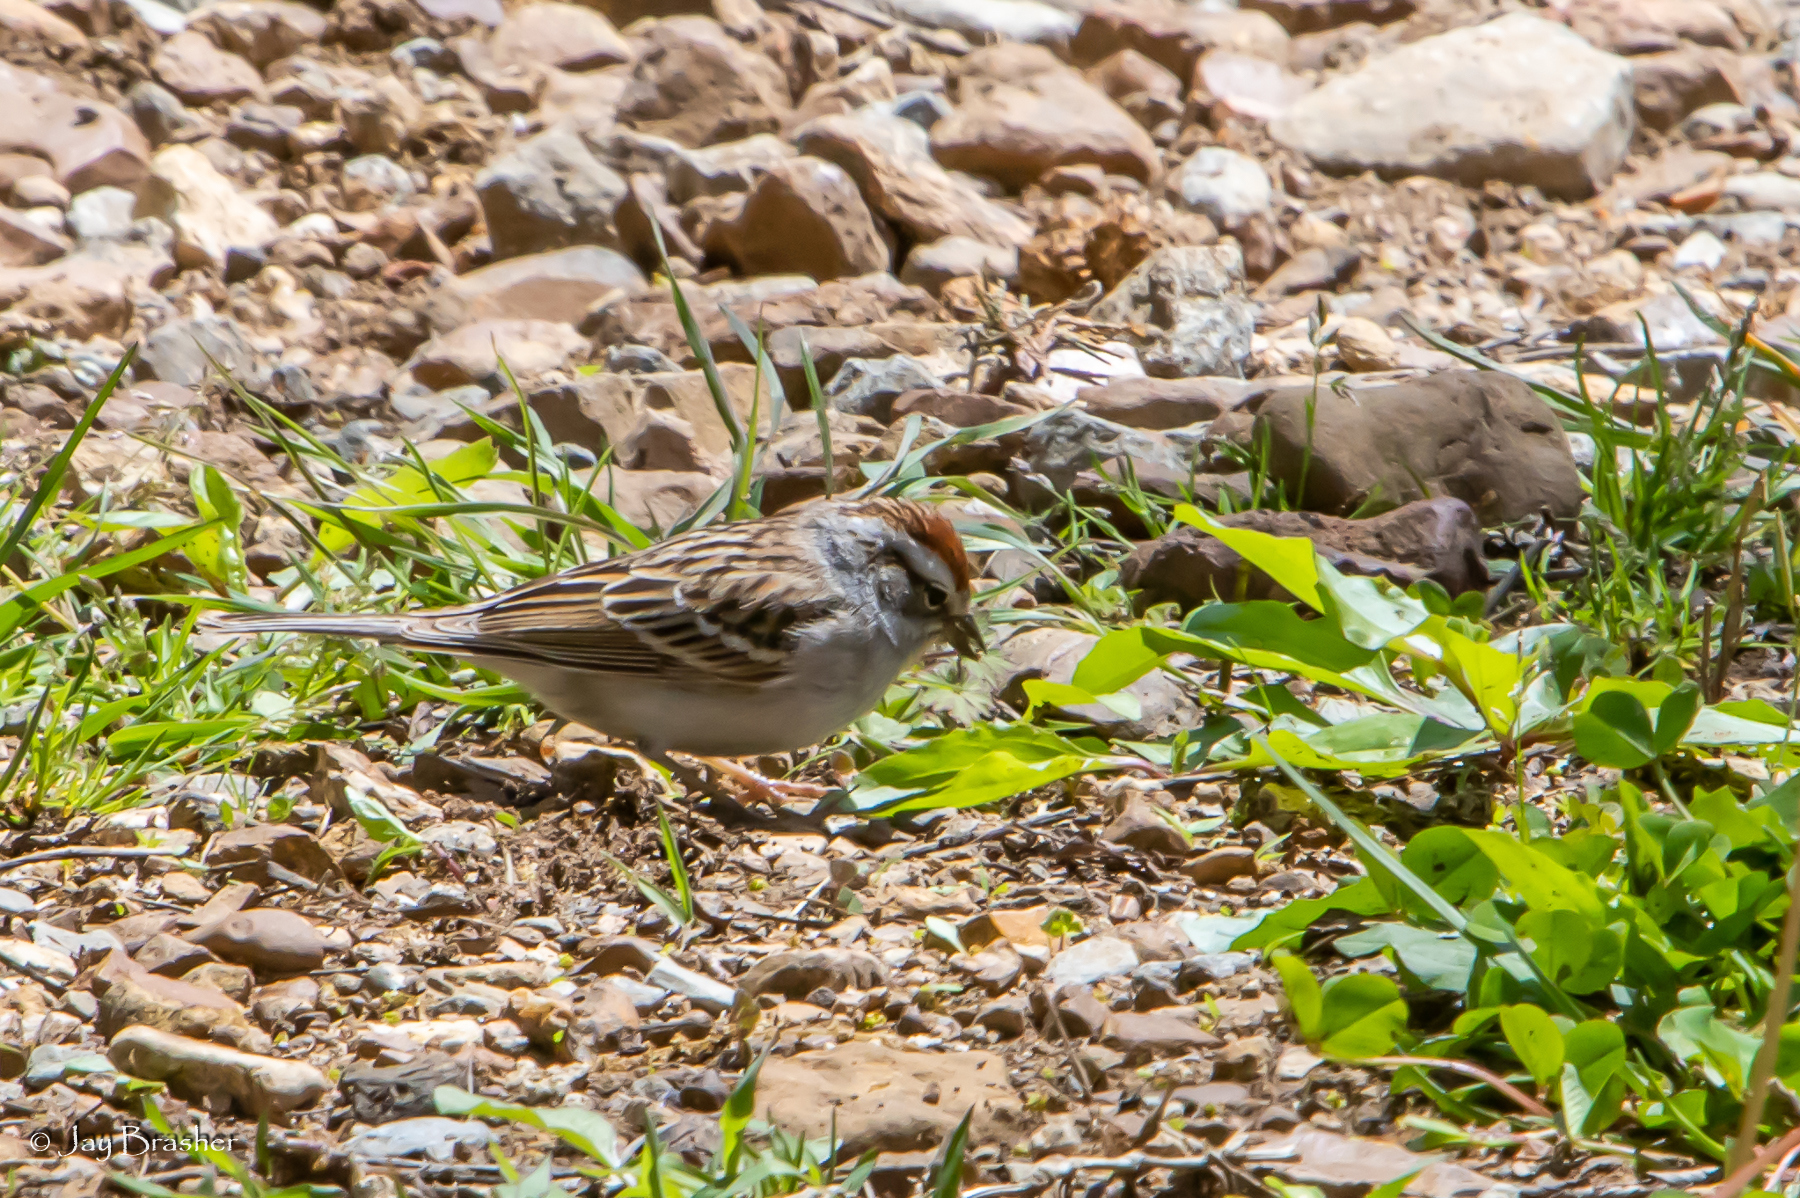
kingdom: Animalia
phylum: Chordata
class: Aves
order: Passeriformes
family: Passerellidae
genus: Spizella
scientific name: Spizella passerina
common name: Chipping sparrow
